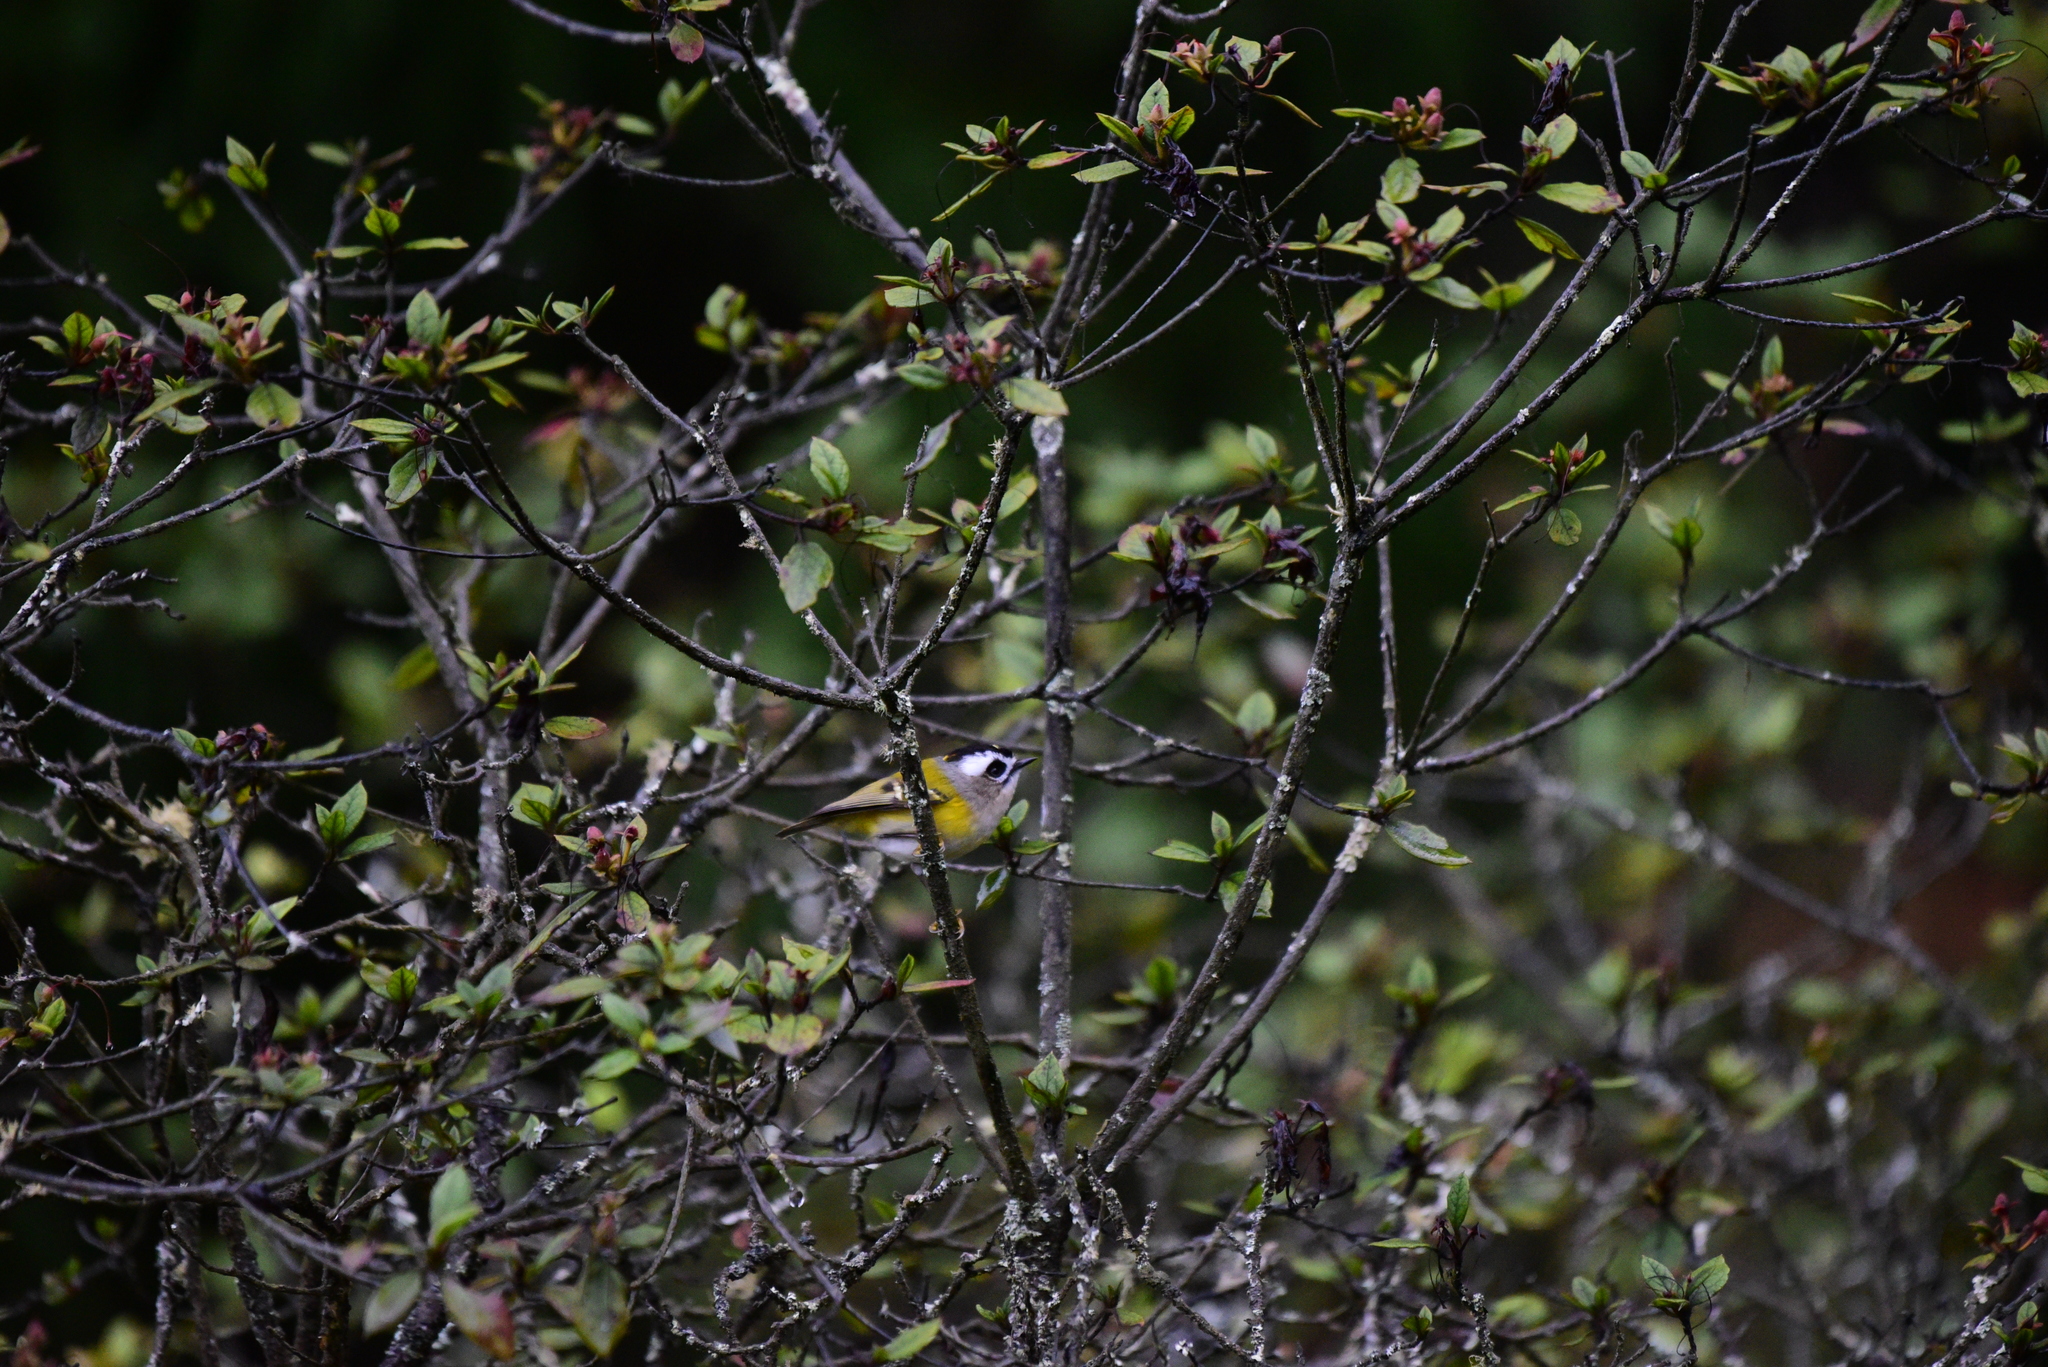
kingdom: Animalia
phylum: Chordata
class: Aves
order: Passeriformes
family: Regulidae
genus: Regulus
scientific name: Regulus goodfellowi
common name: Flamecrest
